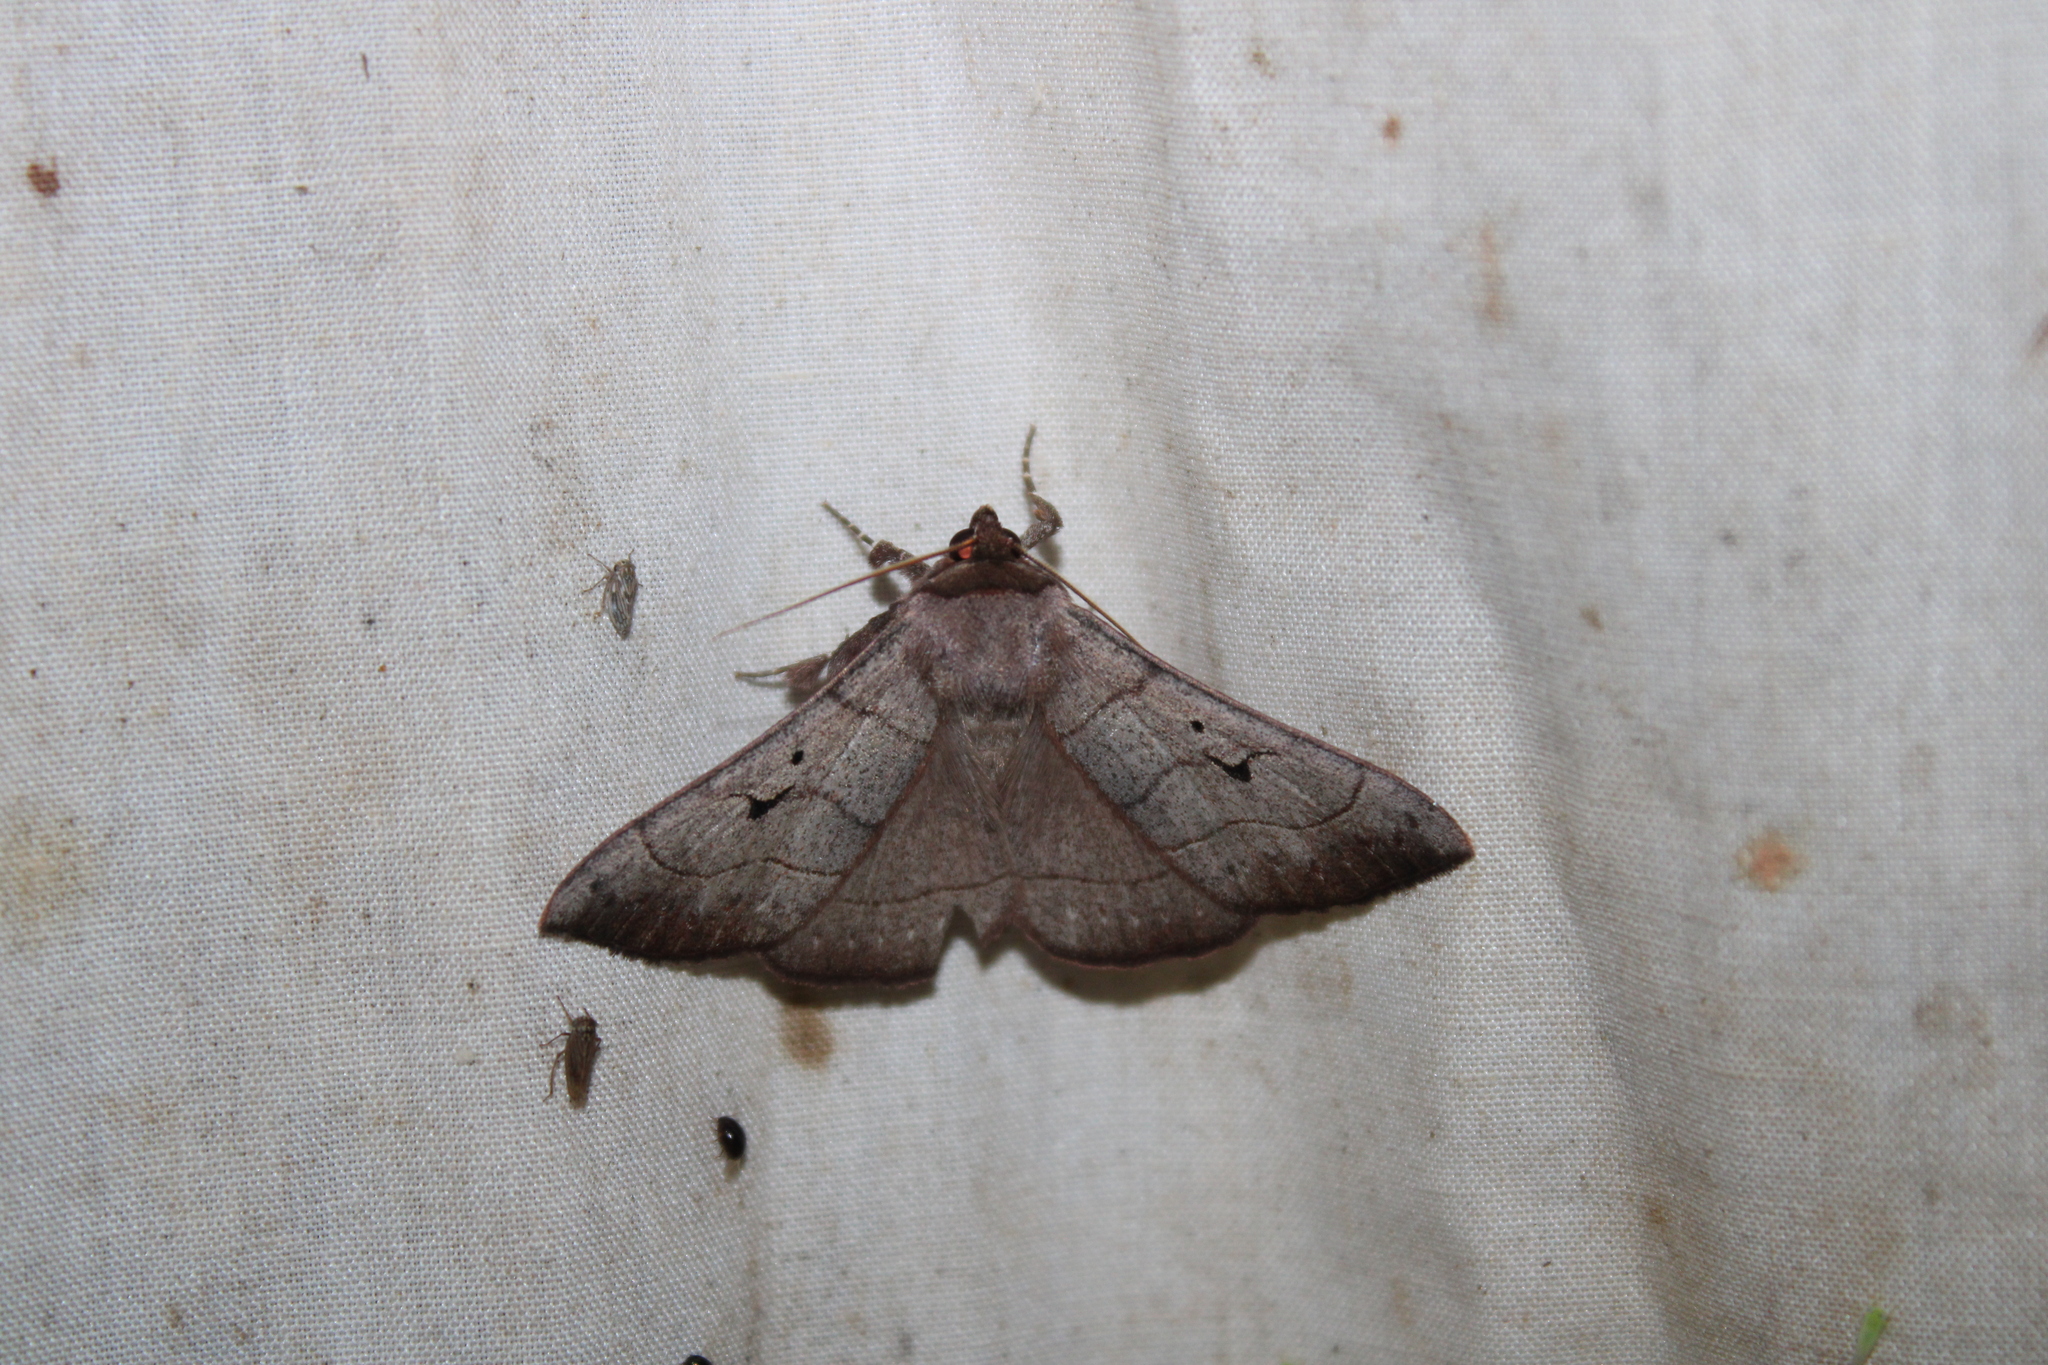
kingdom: Animalia
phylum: Arthropoda
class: Insecta
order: Lepidoptera
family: Erebidae
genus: Panopoda
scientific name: Panopoda carneicosta
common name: Brown panopoda moth
